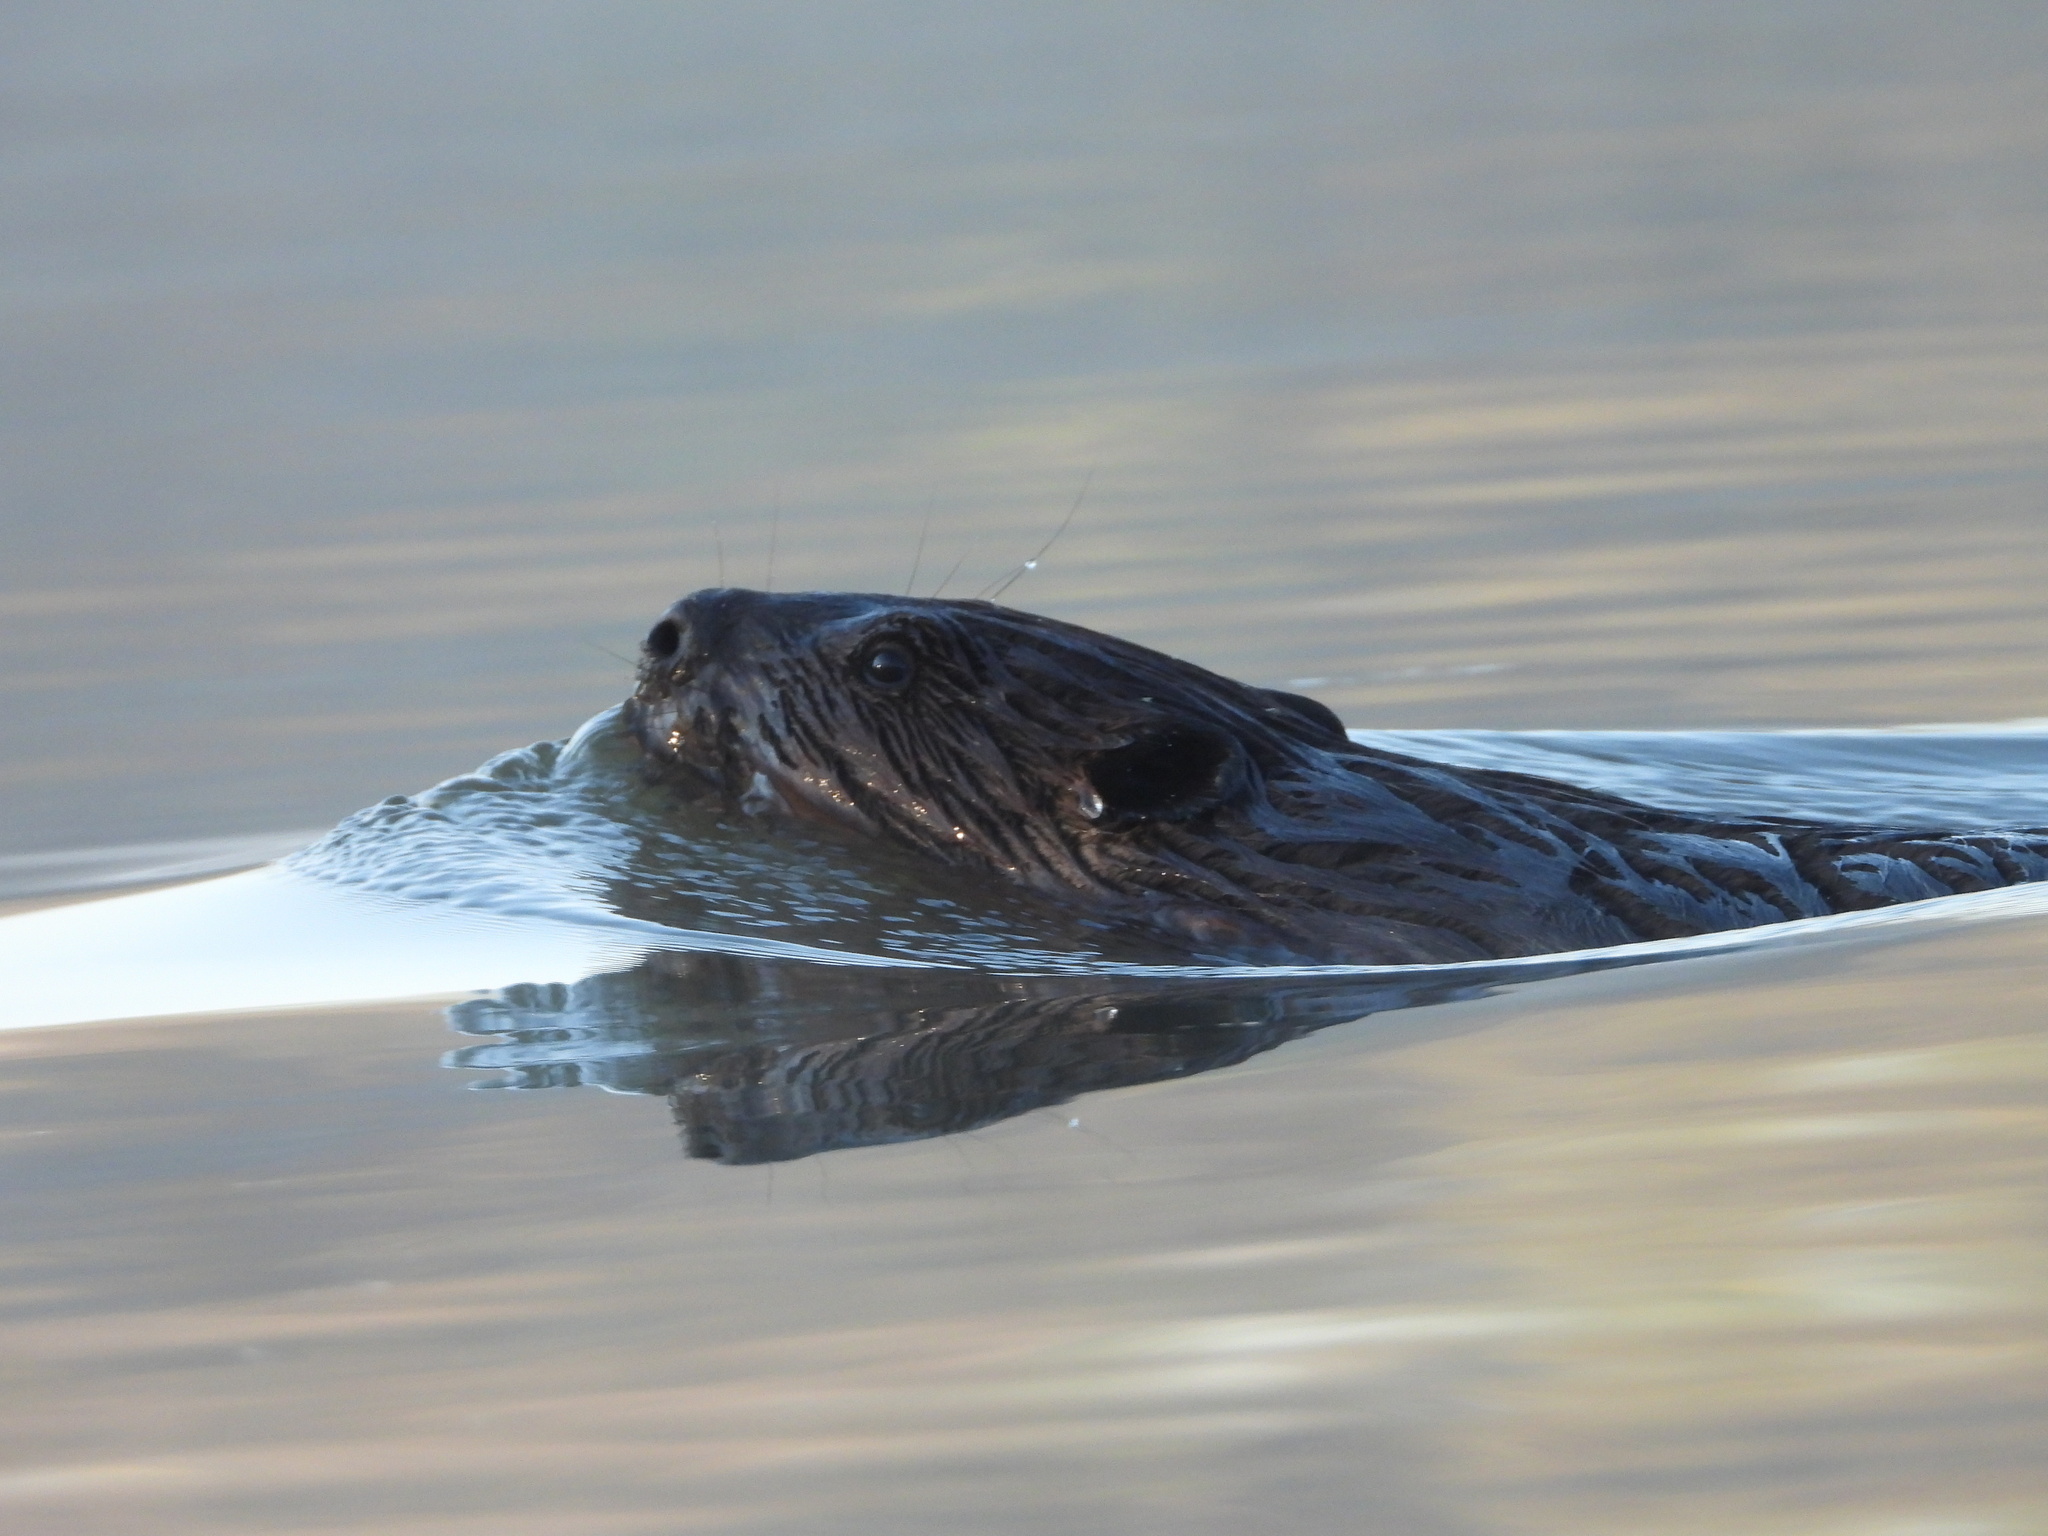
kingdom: Animalia
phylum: Chordata
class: Mammalia
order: Rodentia
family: Castoridae
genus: Castor
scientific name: Castor canadensis
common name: American beaver
